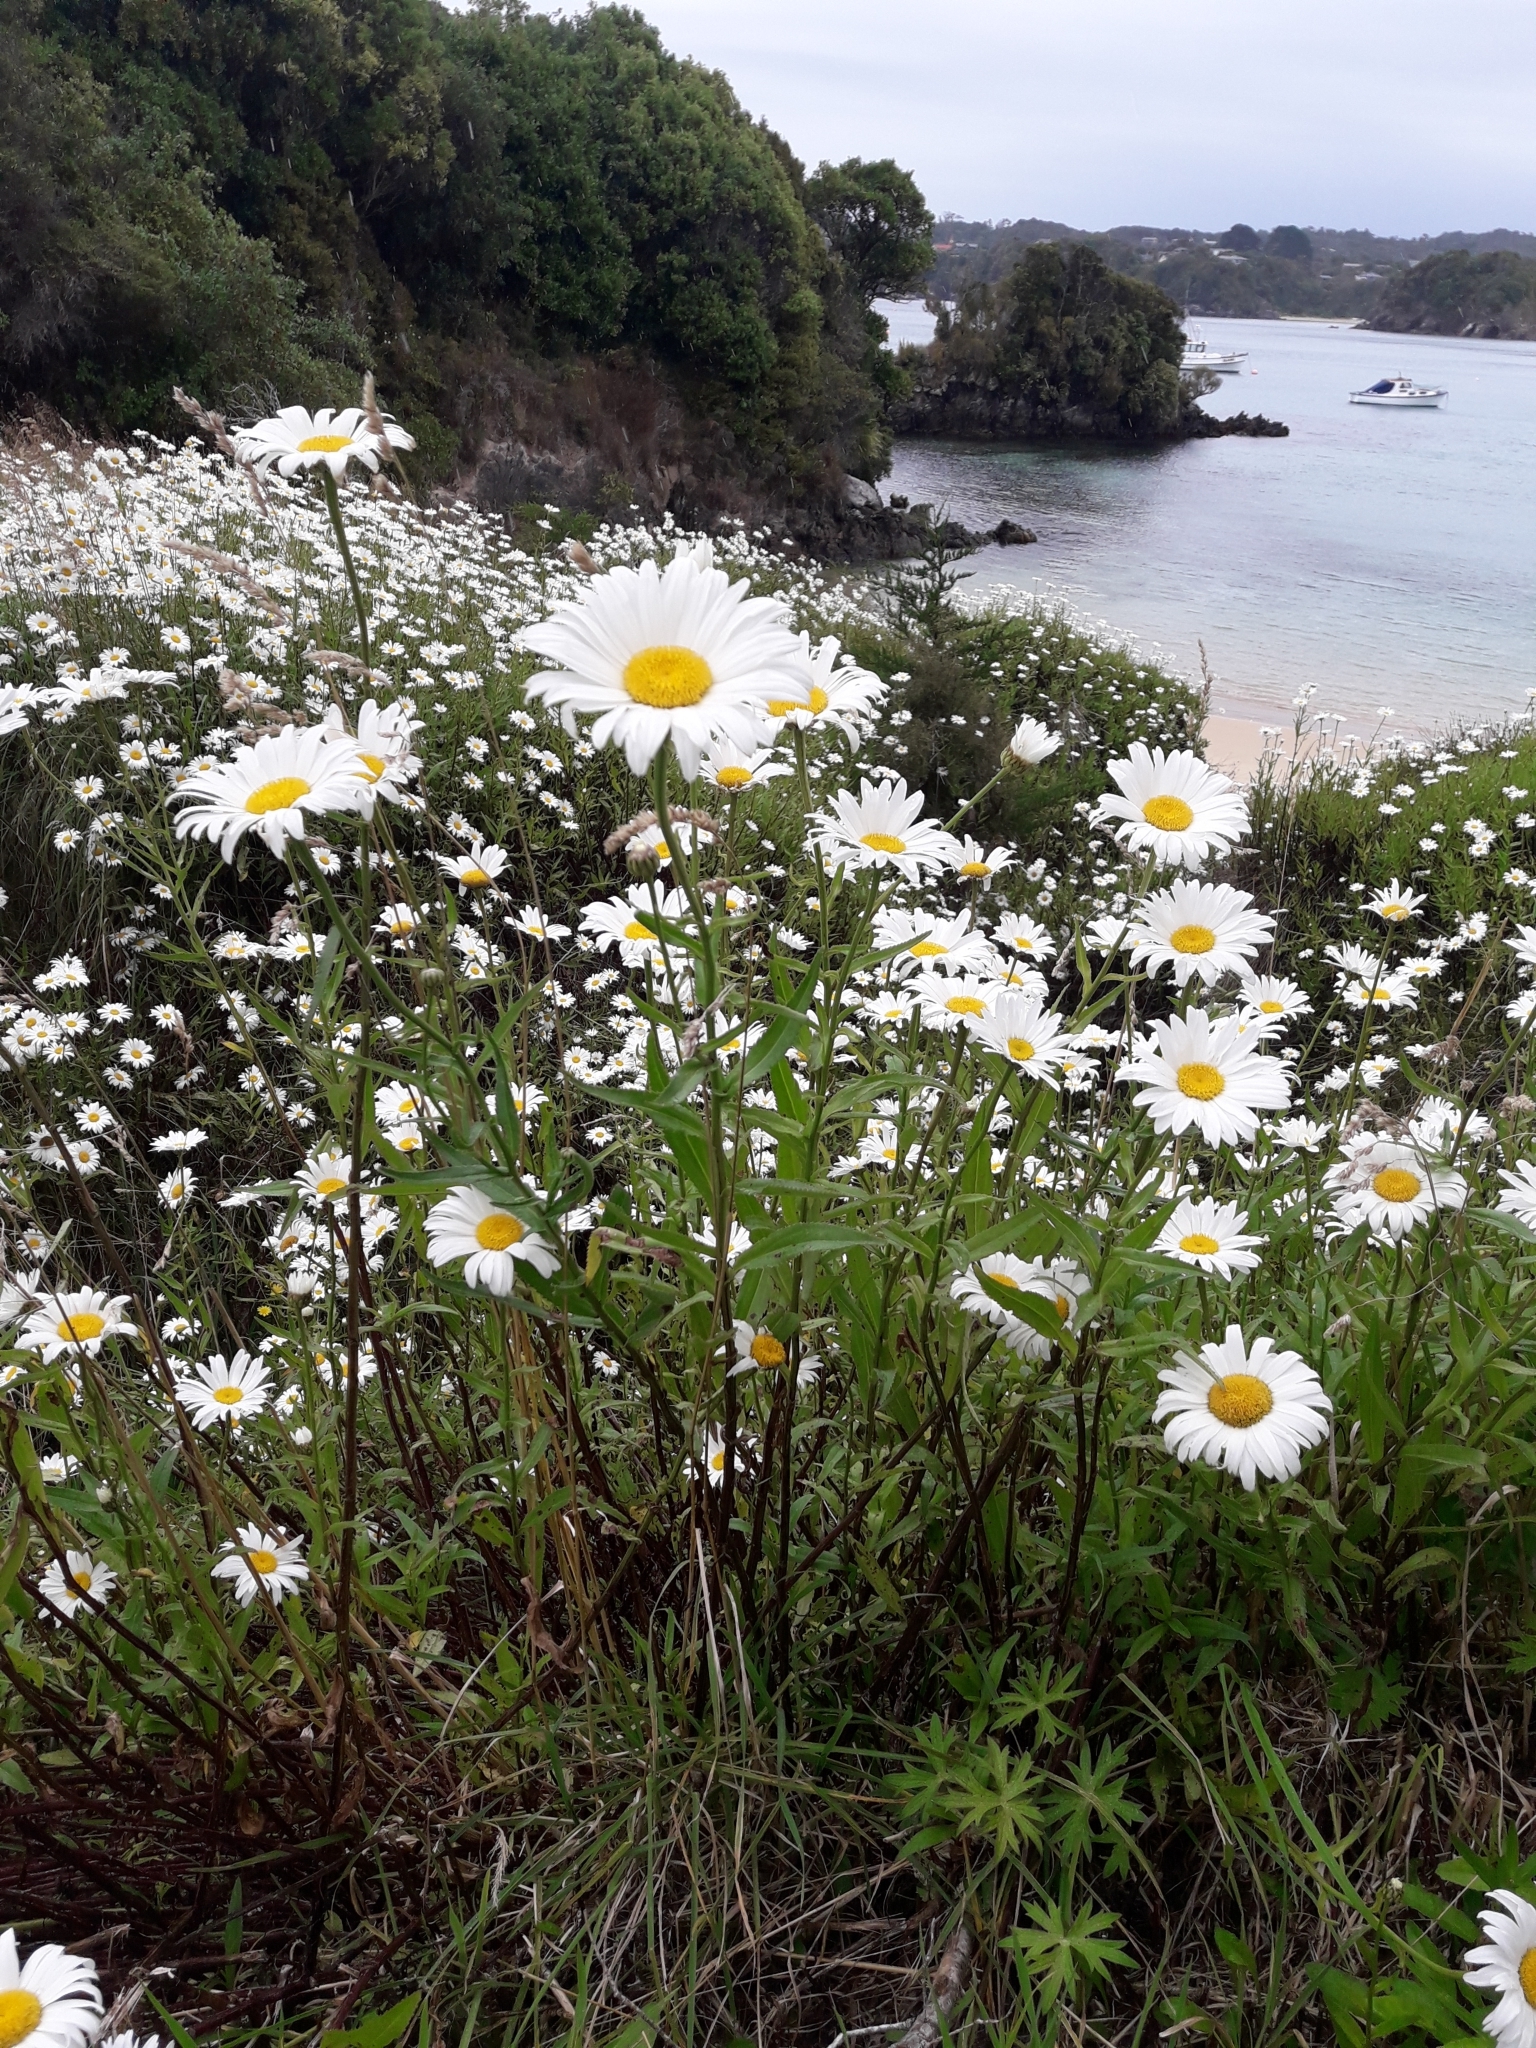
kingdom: Plantae
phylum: Tracheophyta
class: Magnoliopsida
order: Asterales
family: Asteraceae
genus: Leucanthemum
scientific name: Leucanthemum vulgare
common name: Oxeye daisy
